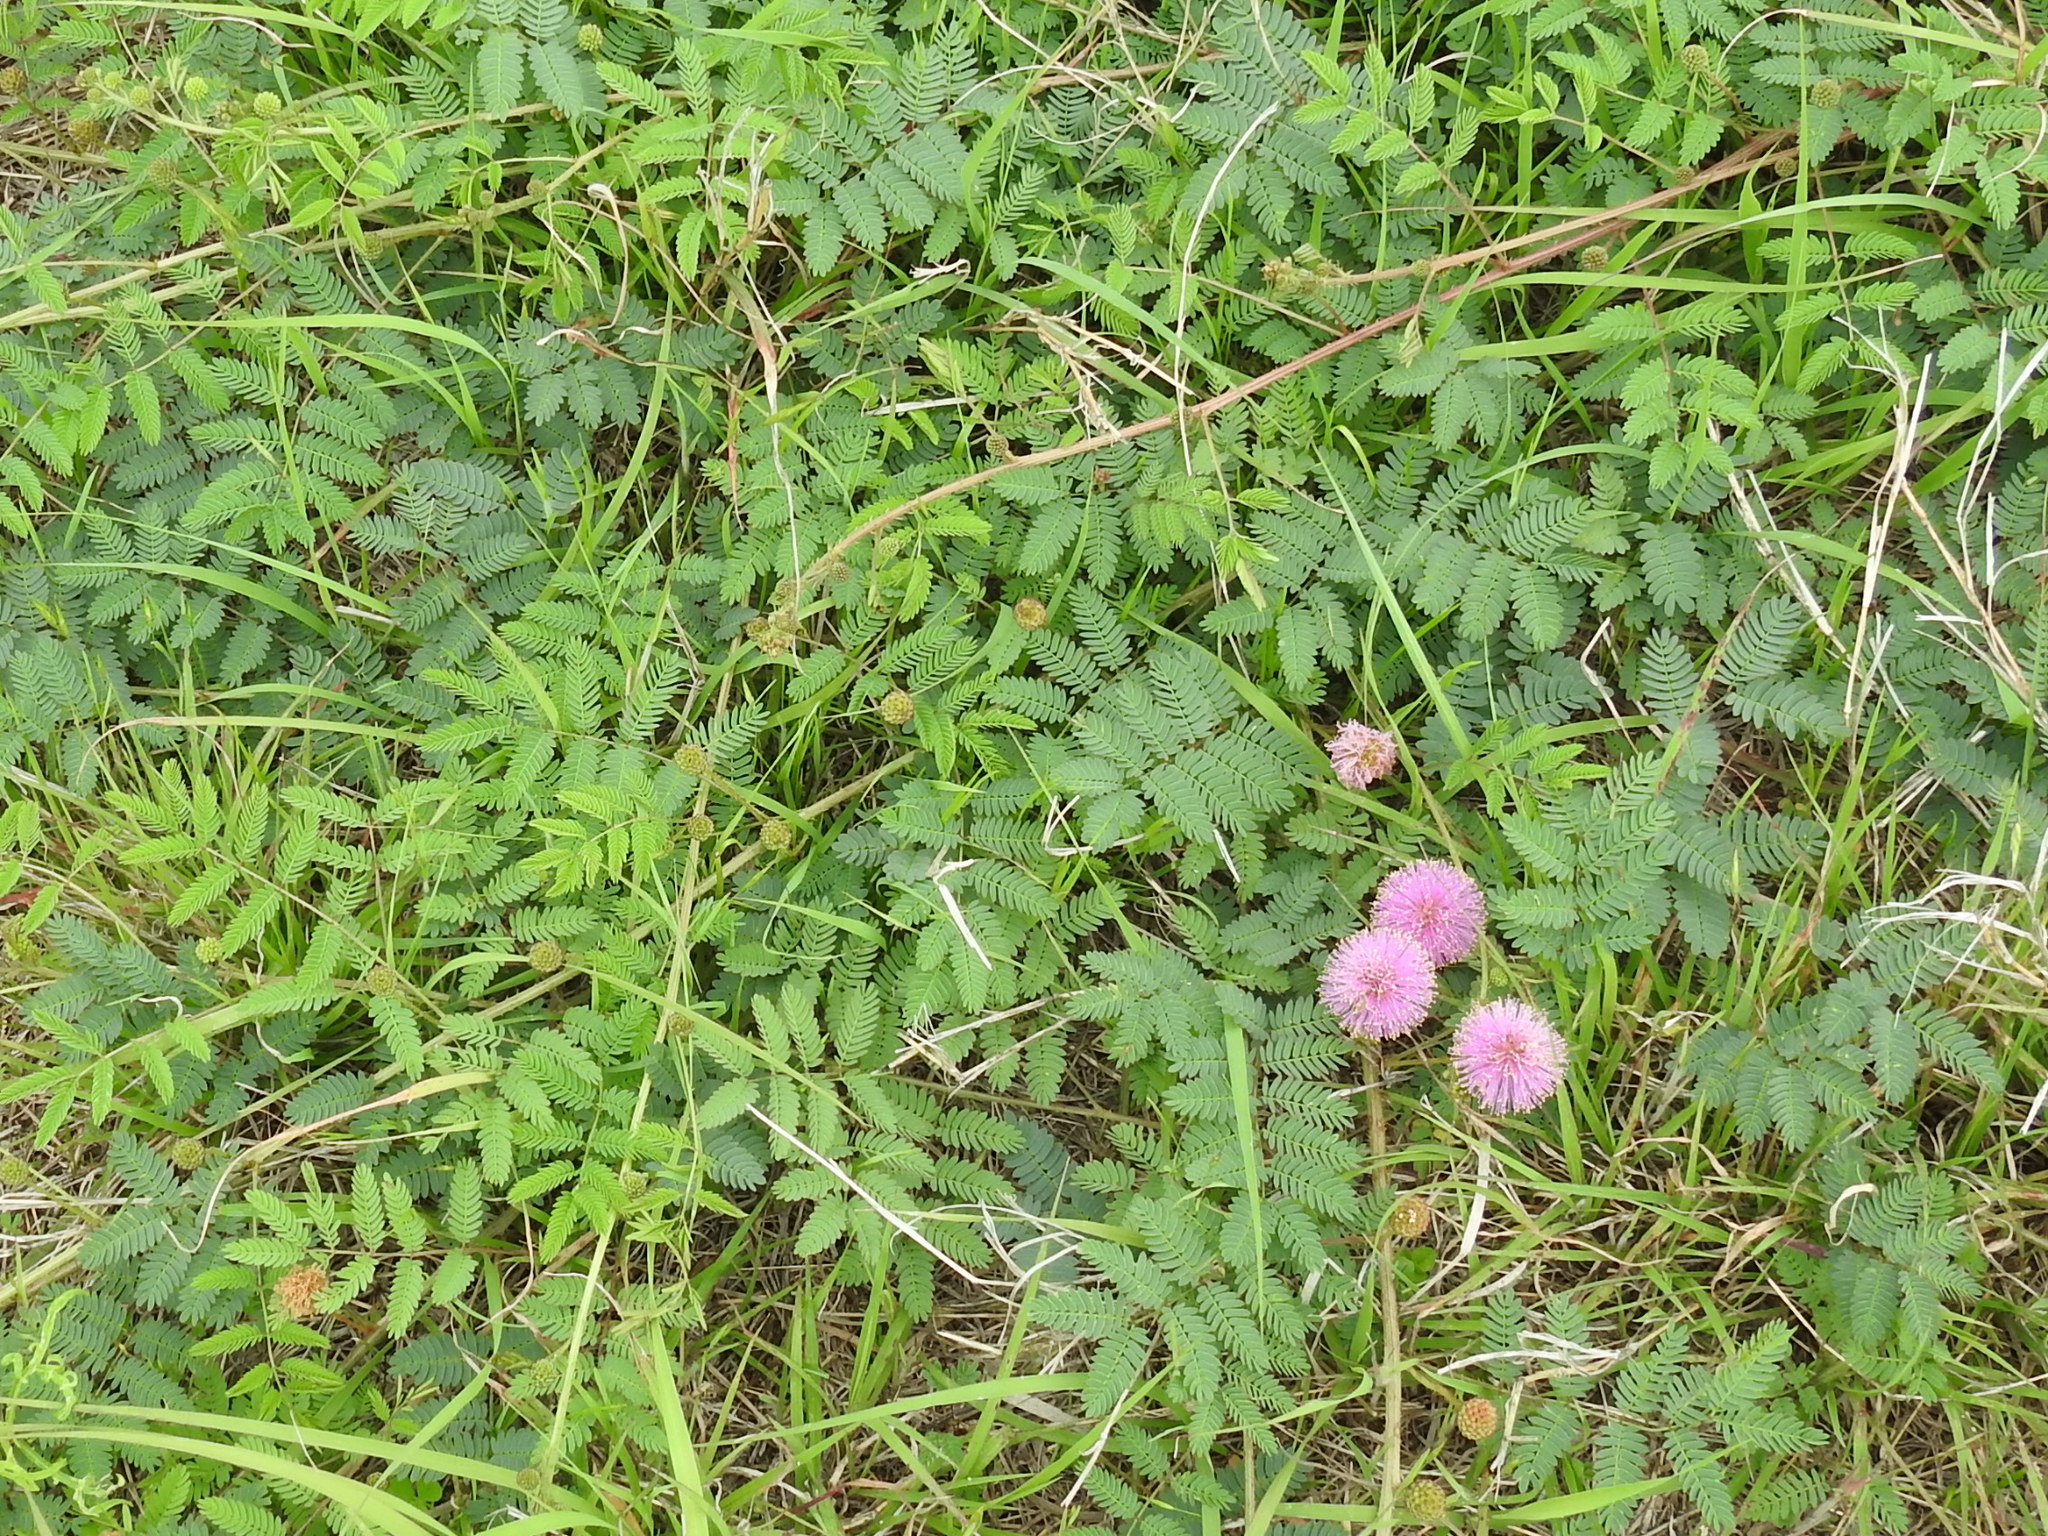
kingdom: Plantae
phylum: Tracheophyta
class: Magnoliopsida
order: Fabales
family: Fabaceae
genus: Mimosa
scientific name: Mimosa quadrivalvis
